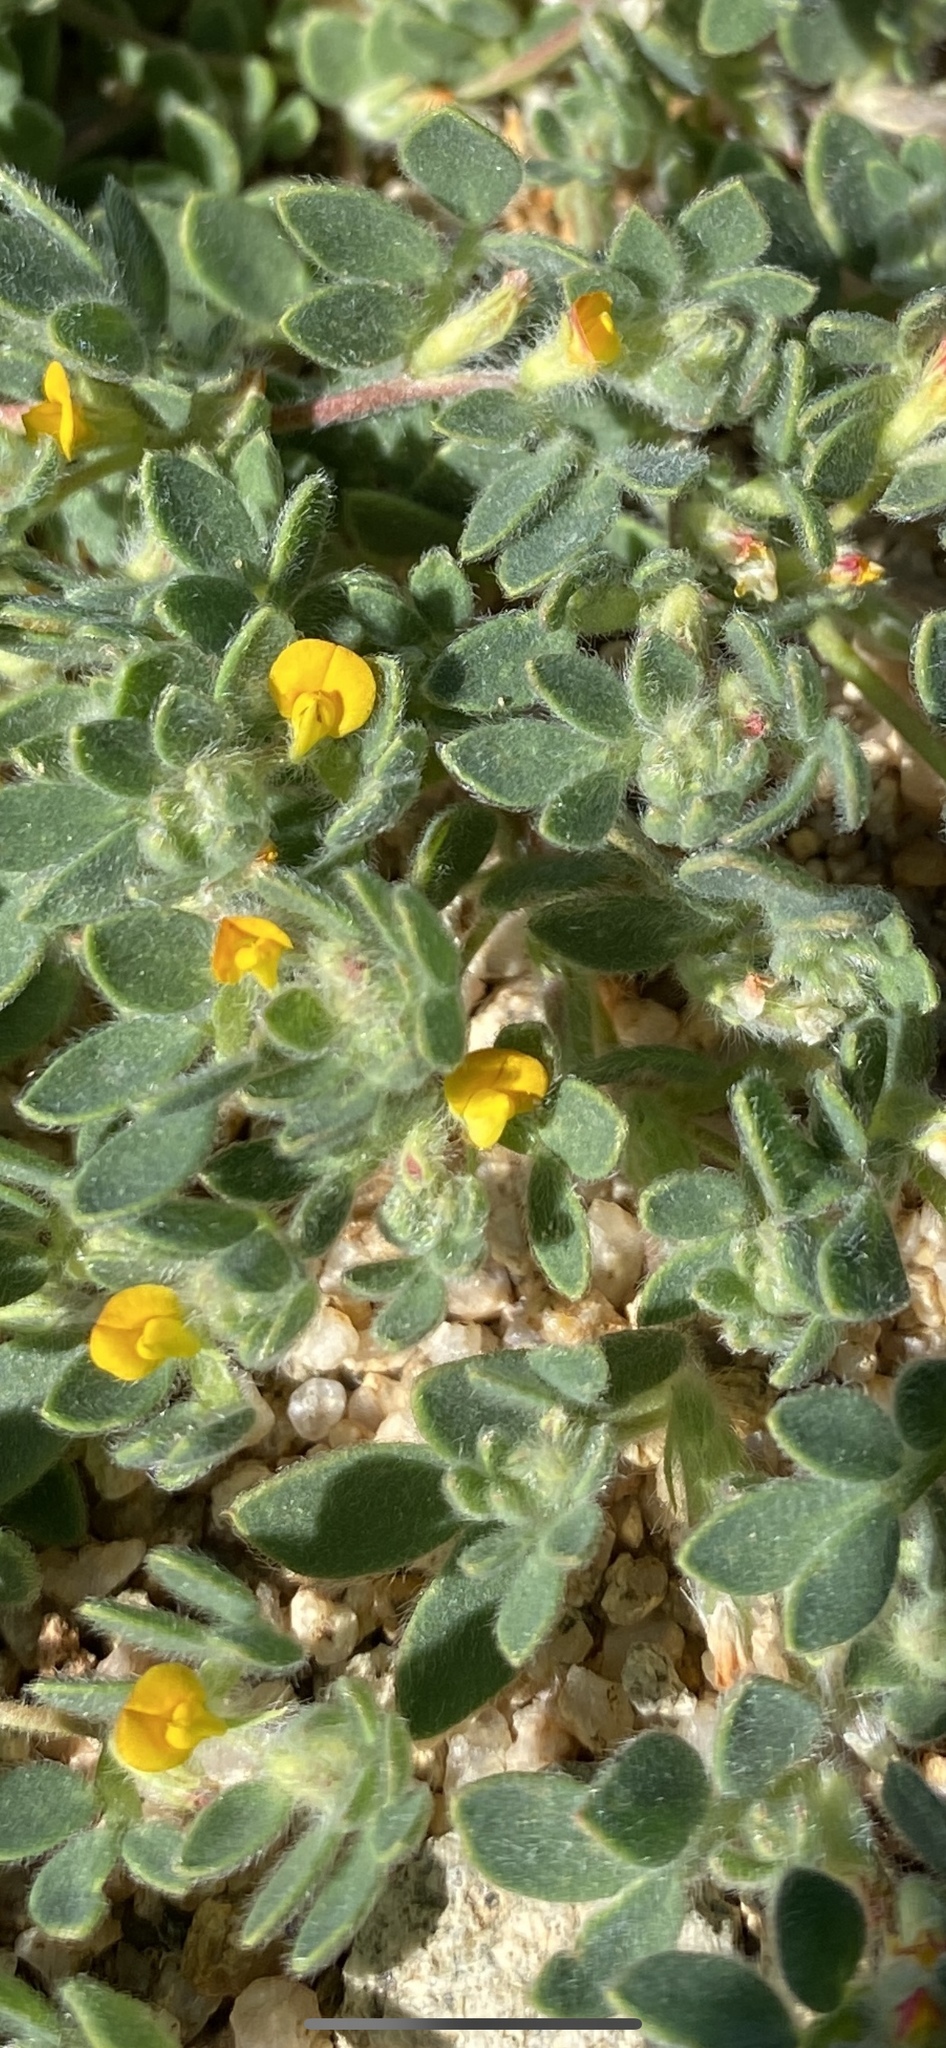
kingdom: Plantae
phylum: Tracheophyta
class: Magnoliopsida
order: Fabales
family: Fabaceae
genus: Acmispon
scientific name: Acmispon brachycarpus
